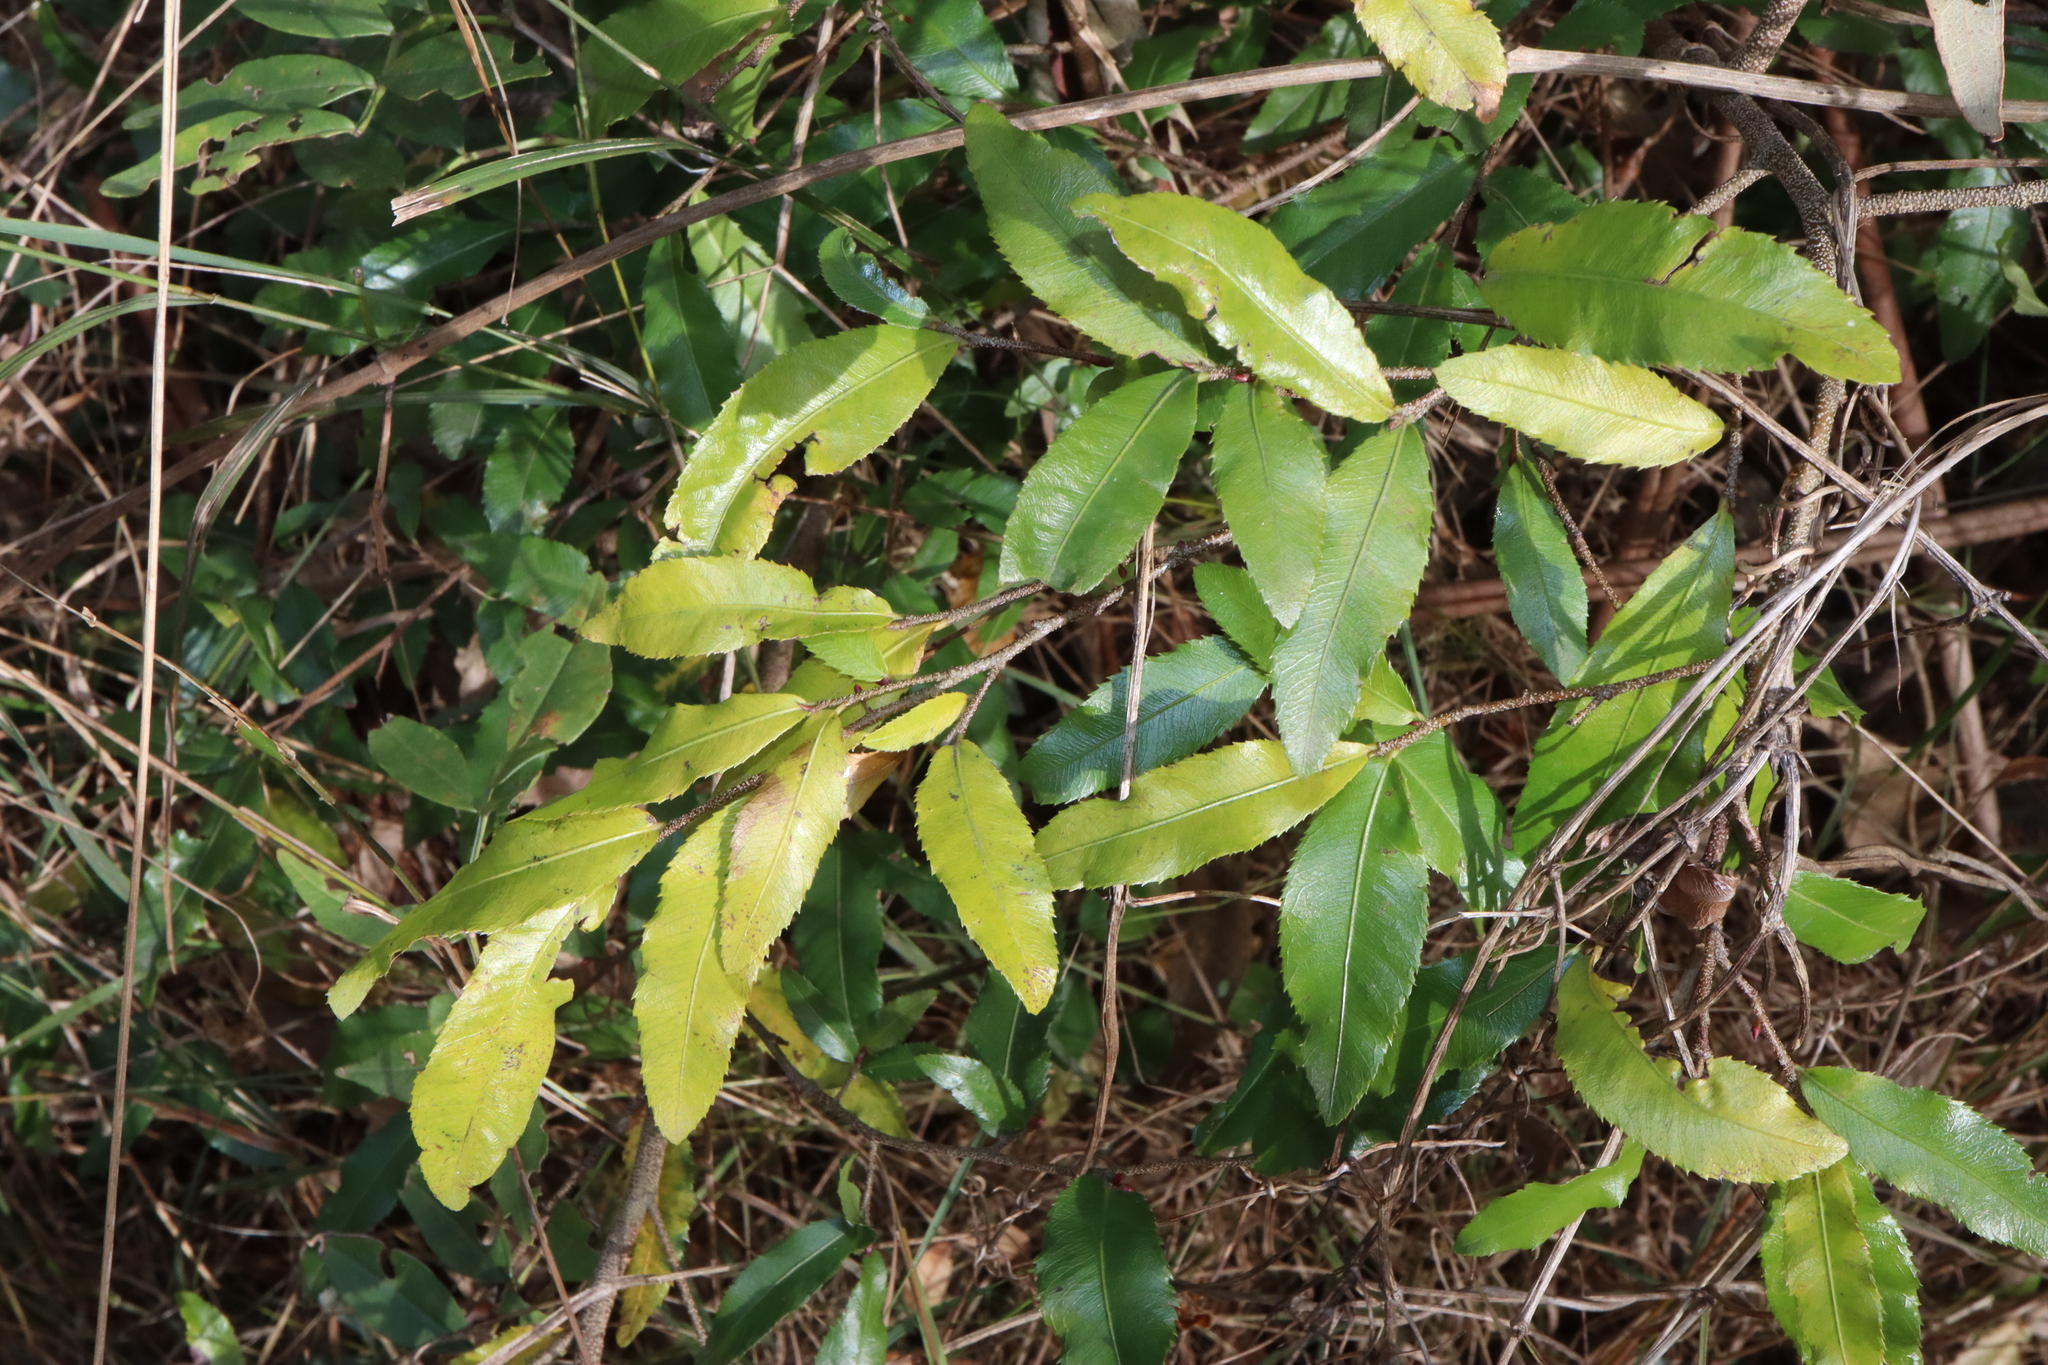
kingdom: Plantae
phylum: Tracheophyta
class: Magnoliopsida
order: Malpighiales
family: Ochnaceae
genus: Ochna
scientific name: Ochna serrulata
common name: Mickey mouse plant
